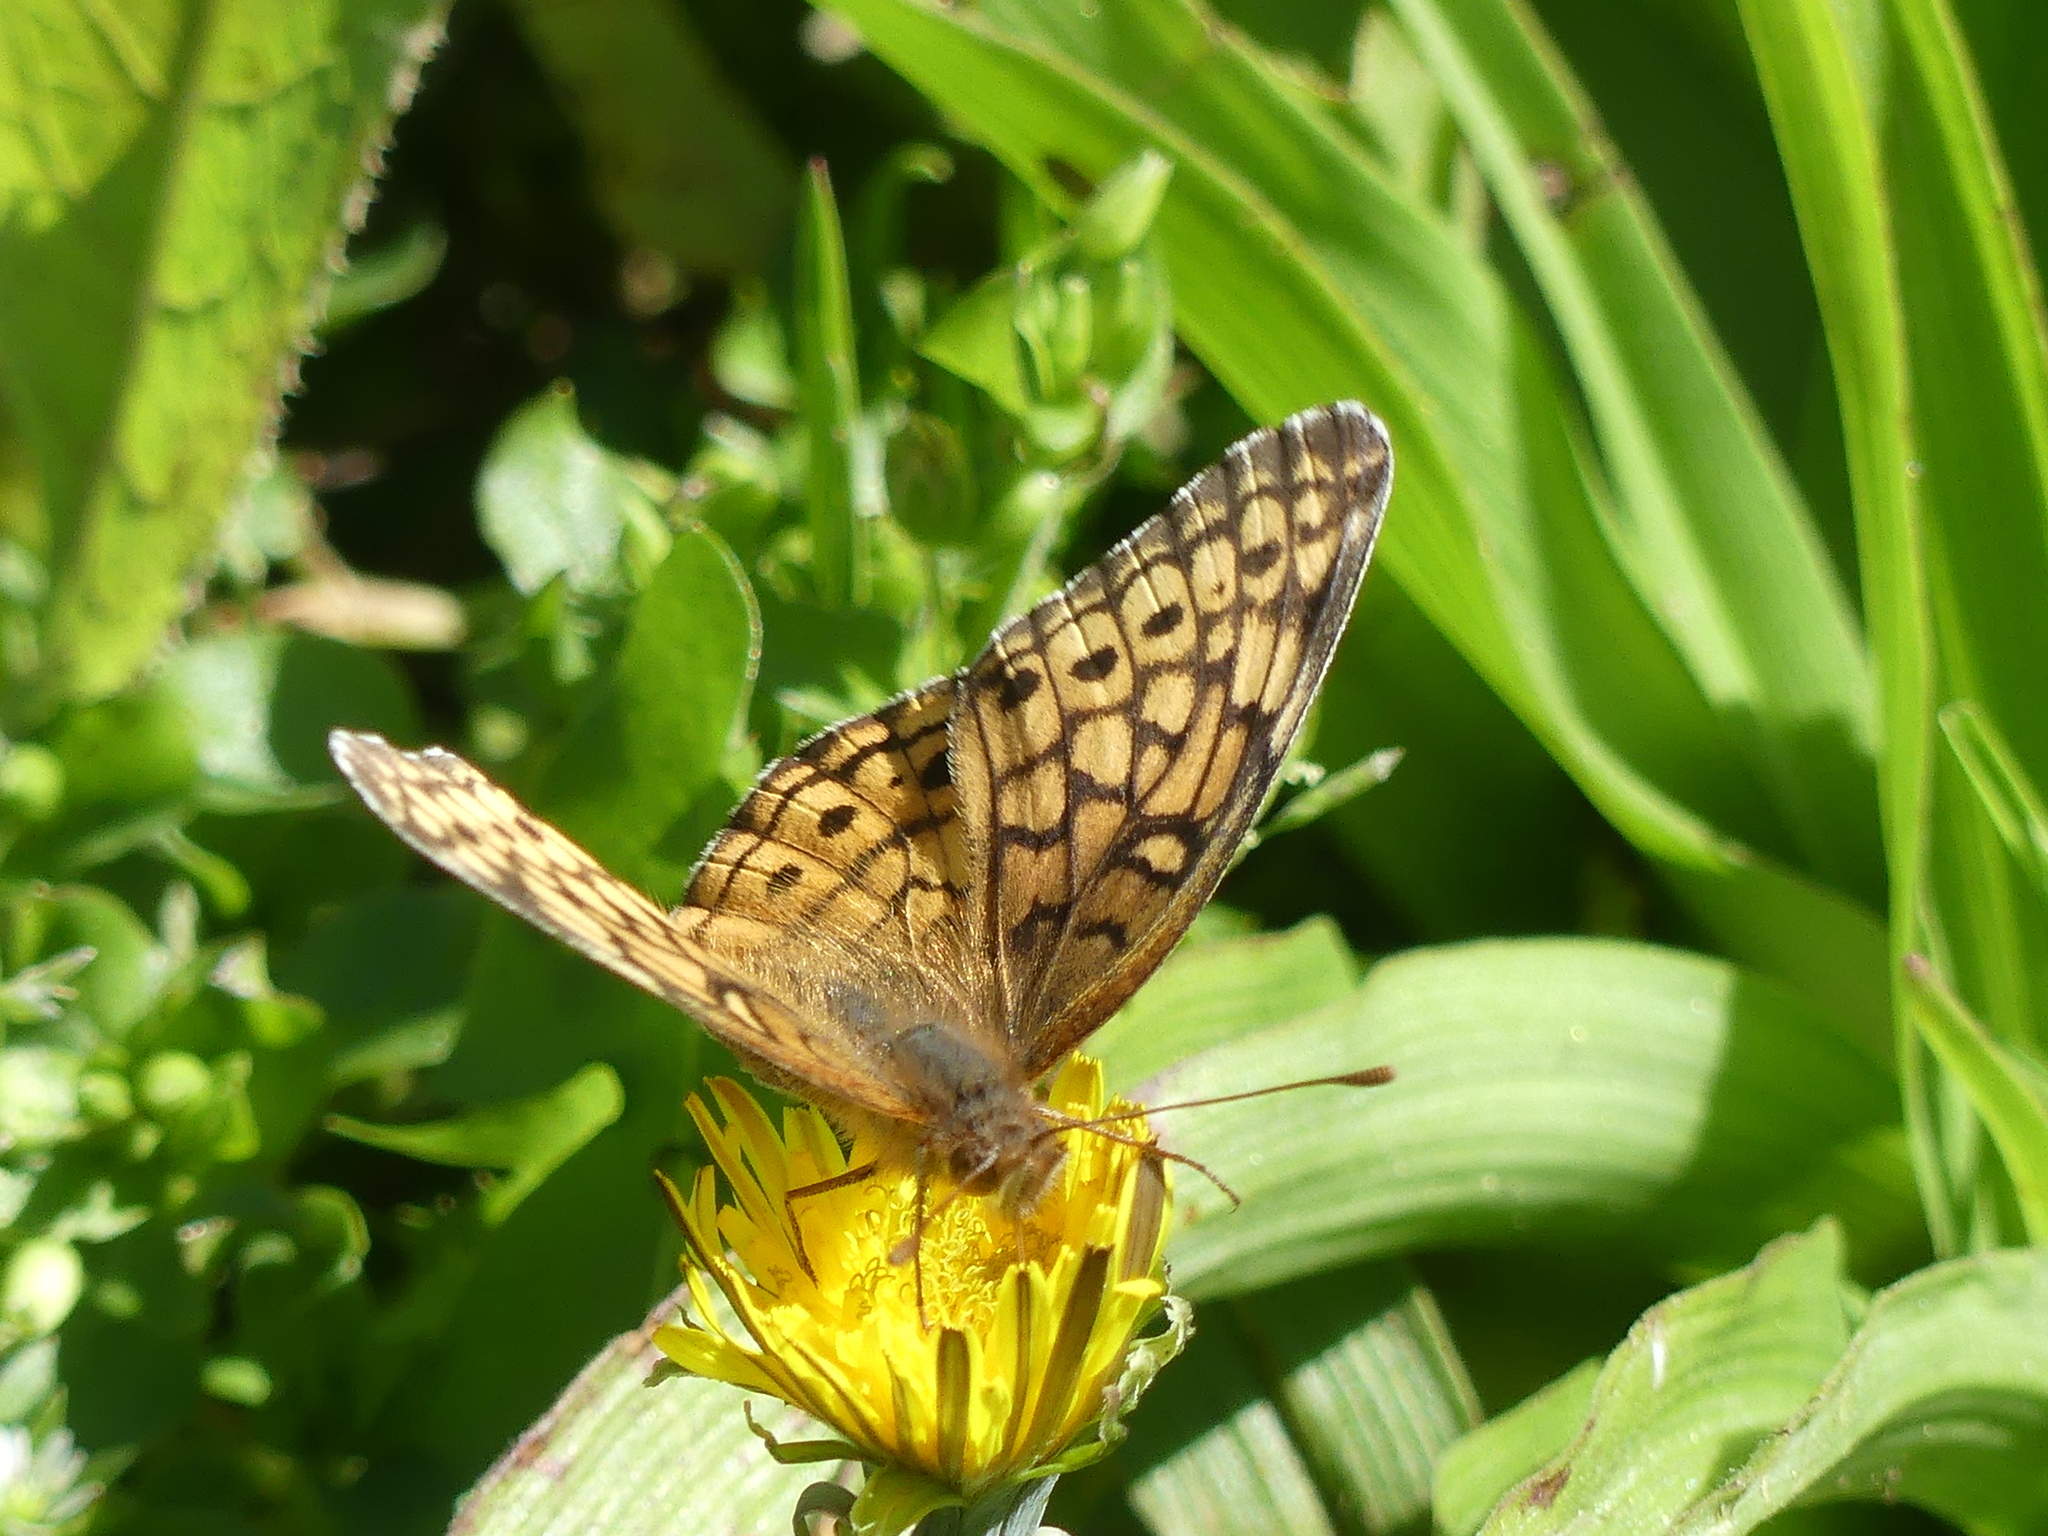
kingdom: Animalia
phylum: Arthropoda
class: Insecta
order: Lepidoptera
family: Nymphalidae
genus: Euptoieta
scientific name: Euptoieta claudia
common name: Variegated fritillary
